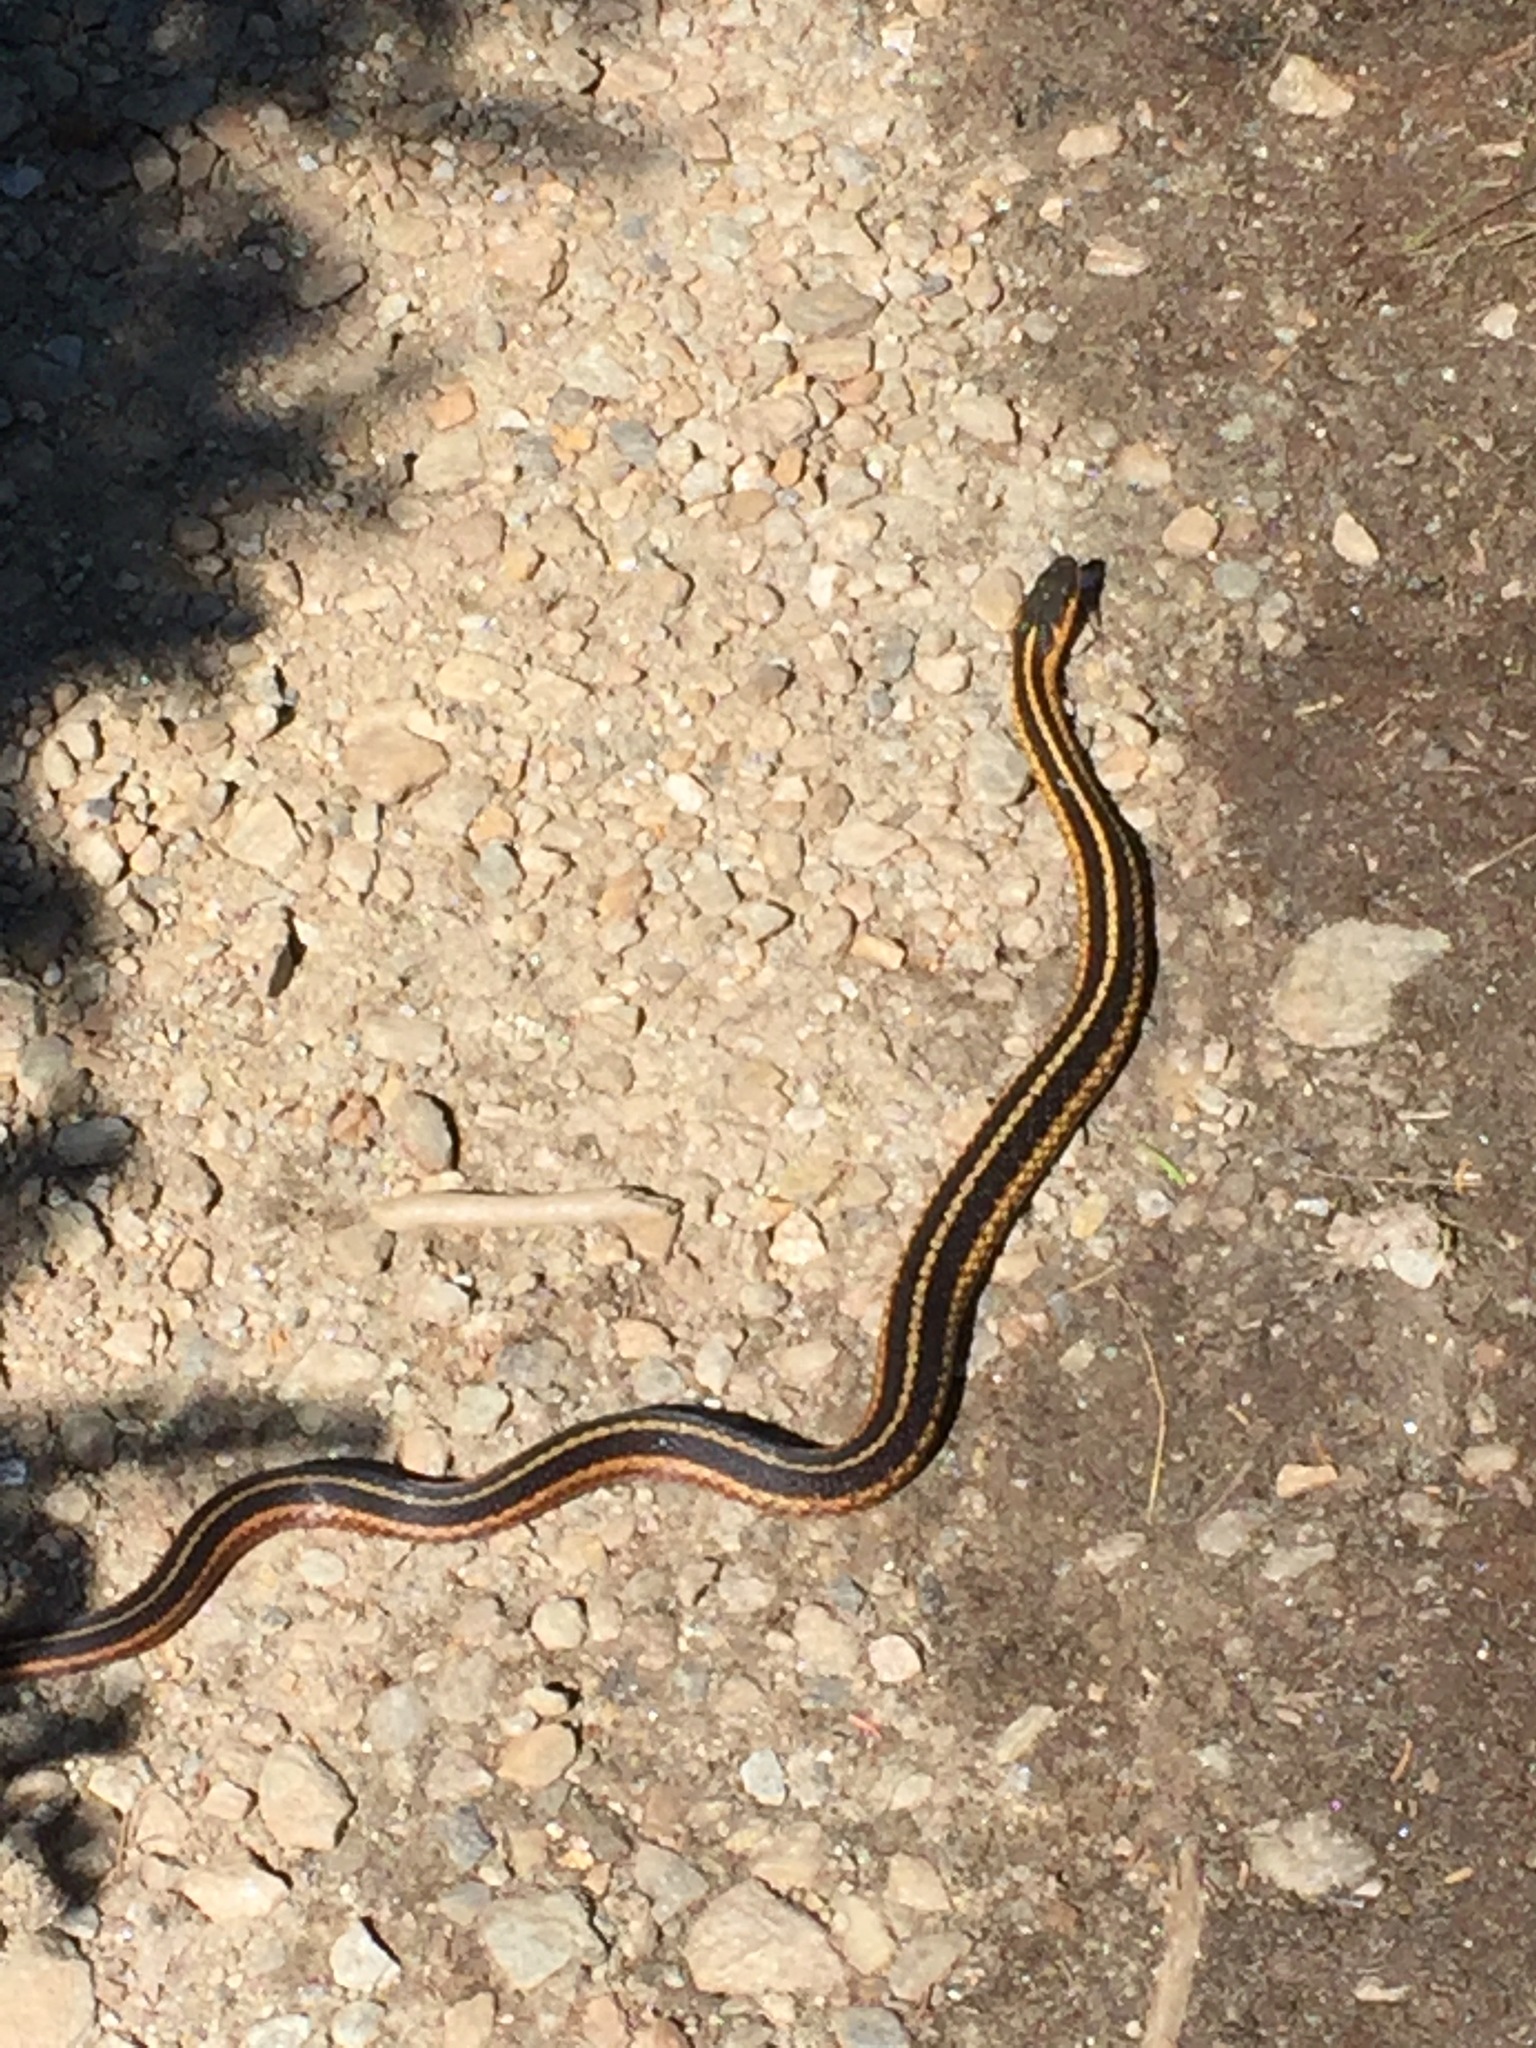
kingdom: Animalia
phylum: Chordata
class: Squamata
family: Colubridae
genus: Thamnophis
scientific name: Thamnophis sirtalis
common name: Common garter snake
